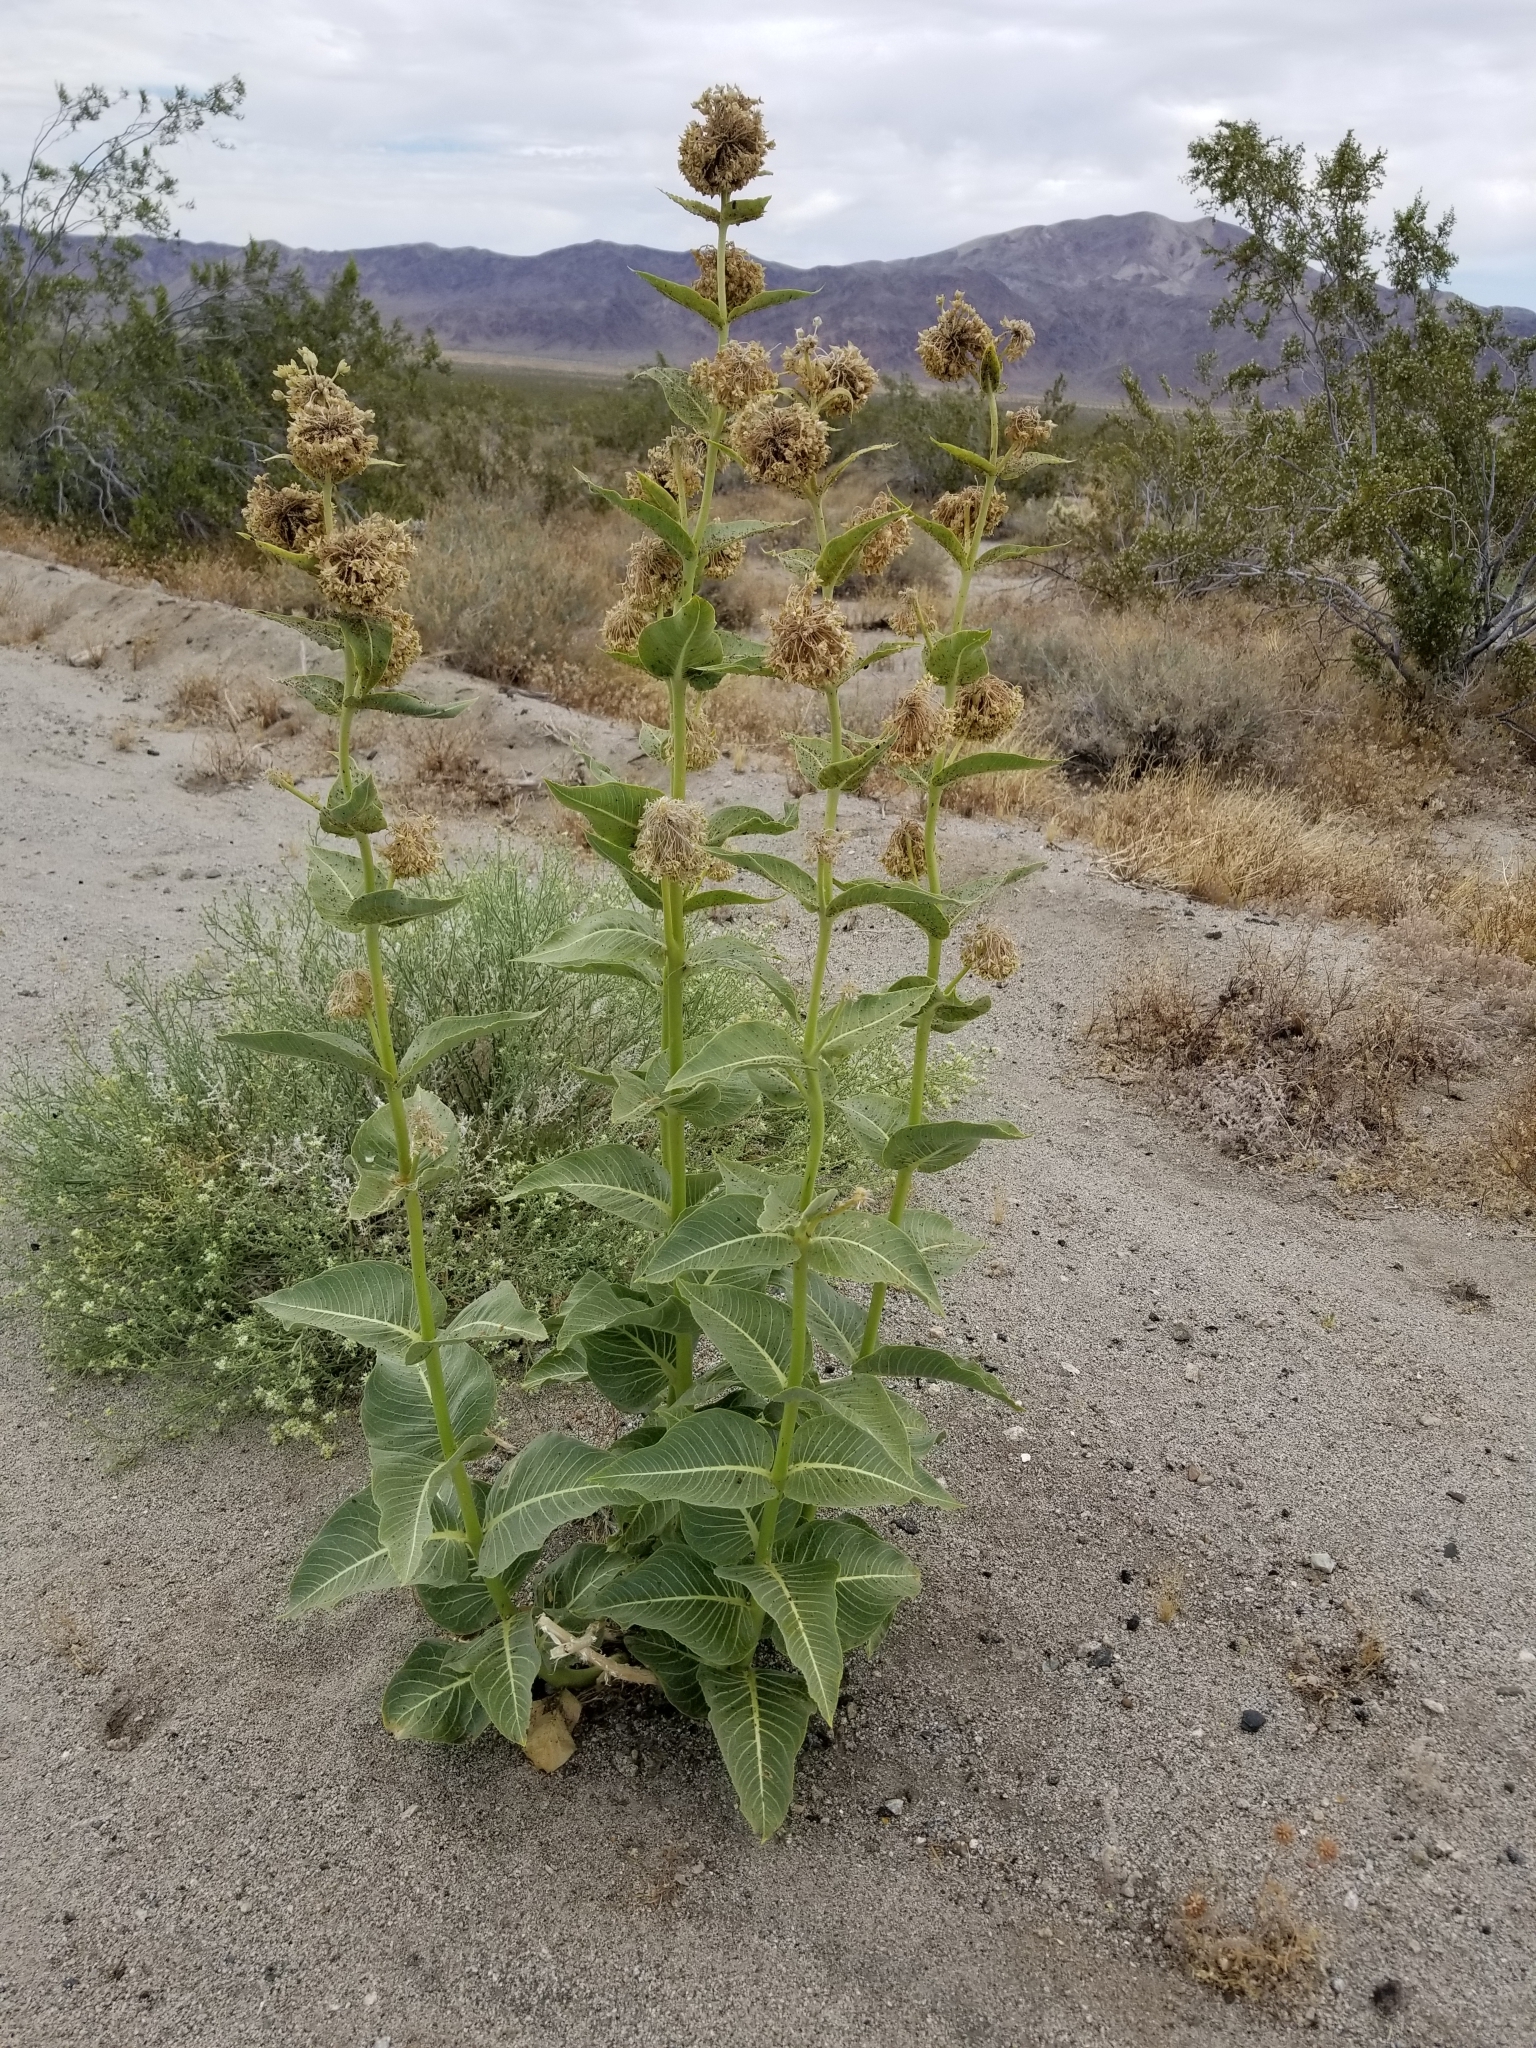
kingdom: Plantae
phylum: Tracheophyta
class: Magnoliopsida
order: Gentianales
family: Apocynaceae
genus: Asclepias
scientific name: Asclepias erosa
